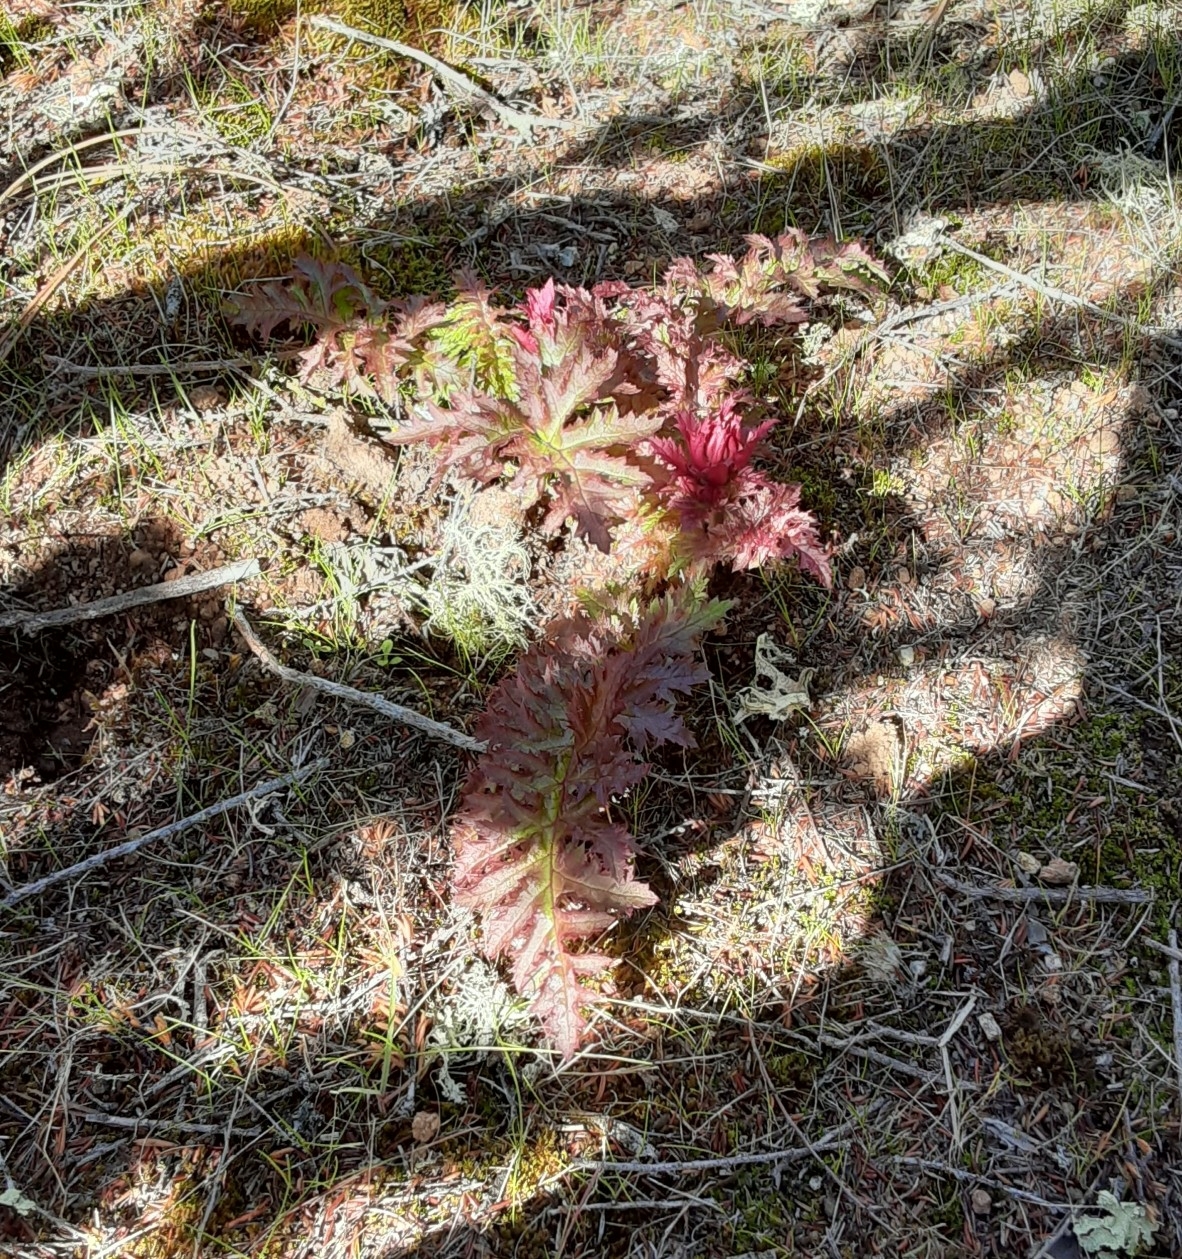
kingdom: Plantae
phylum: Tracheophyta
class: Magnoliopsida
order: Lamiales
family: Orobanchaceae
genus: Pedicularis
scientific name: Pedicularis densiflora
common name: Indian warrior
